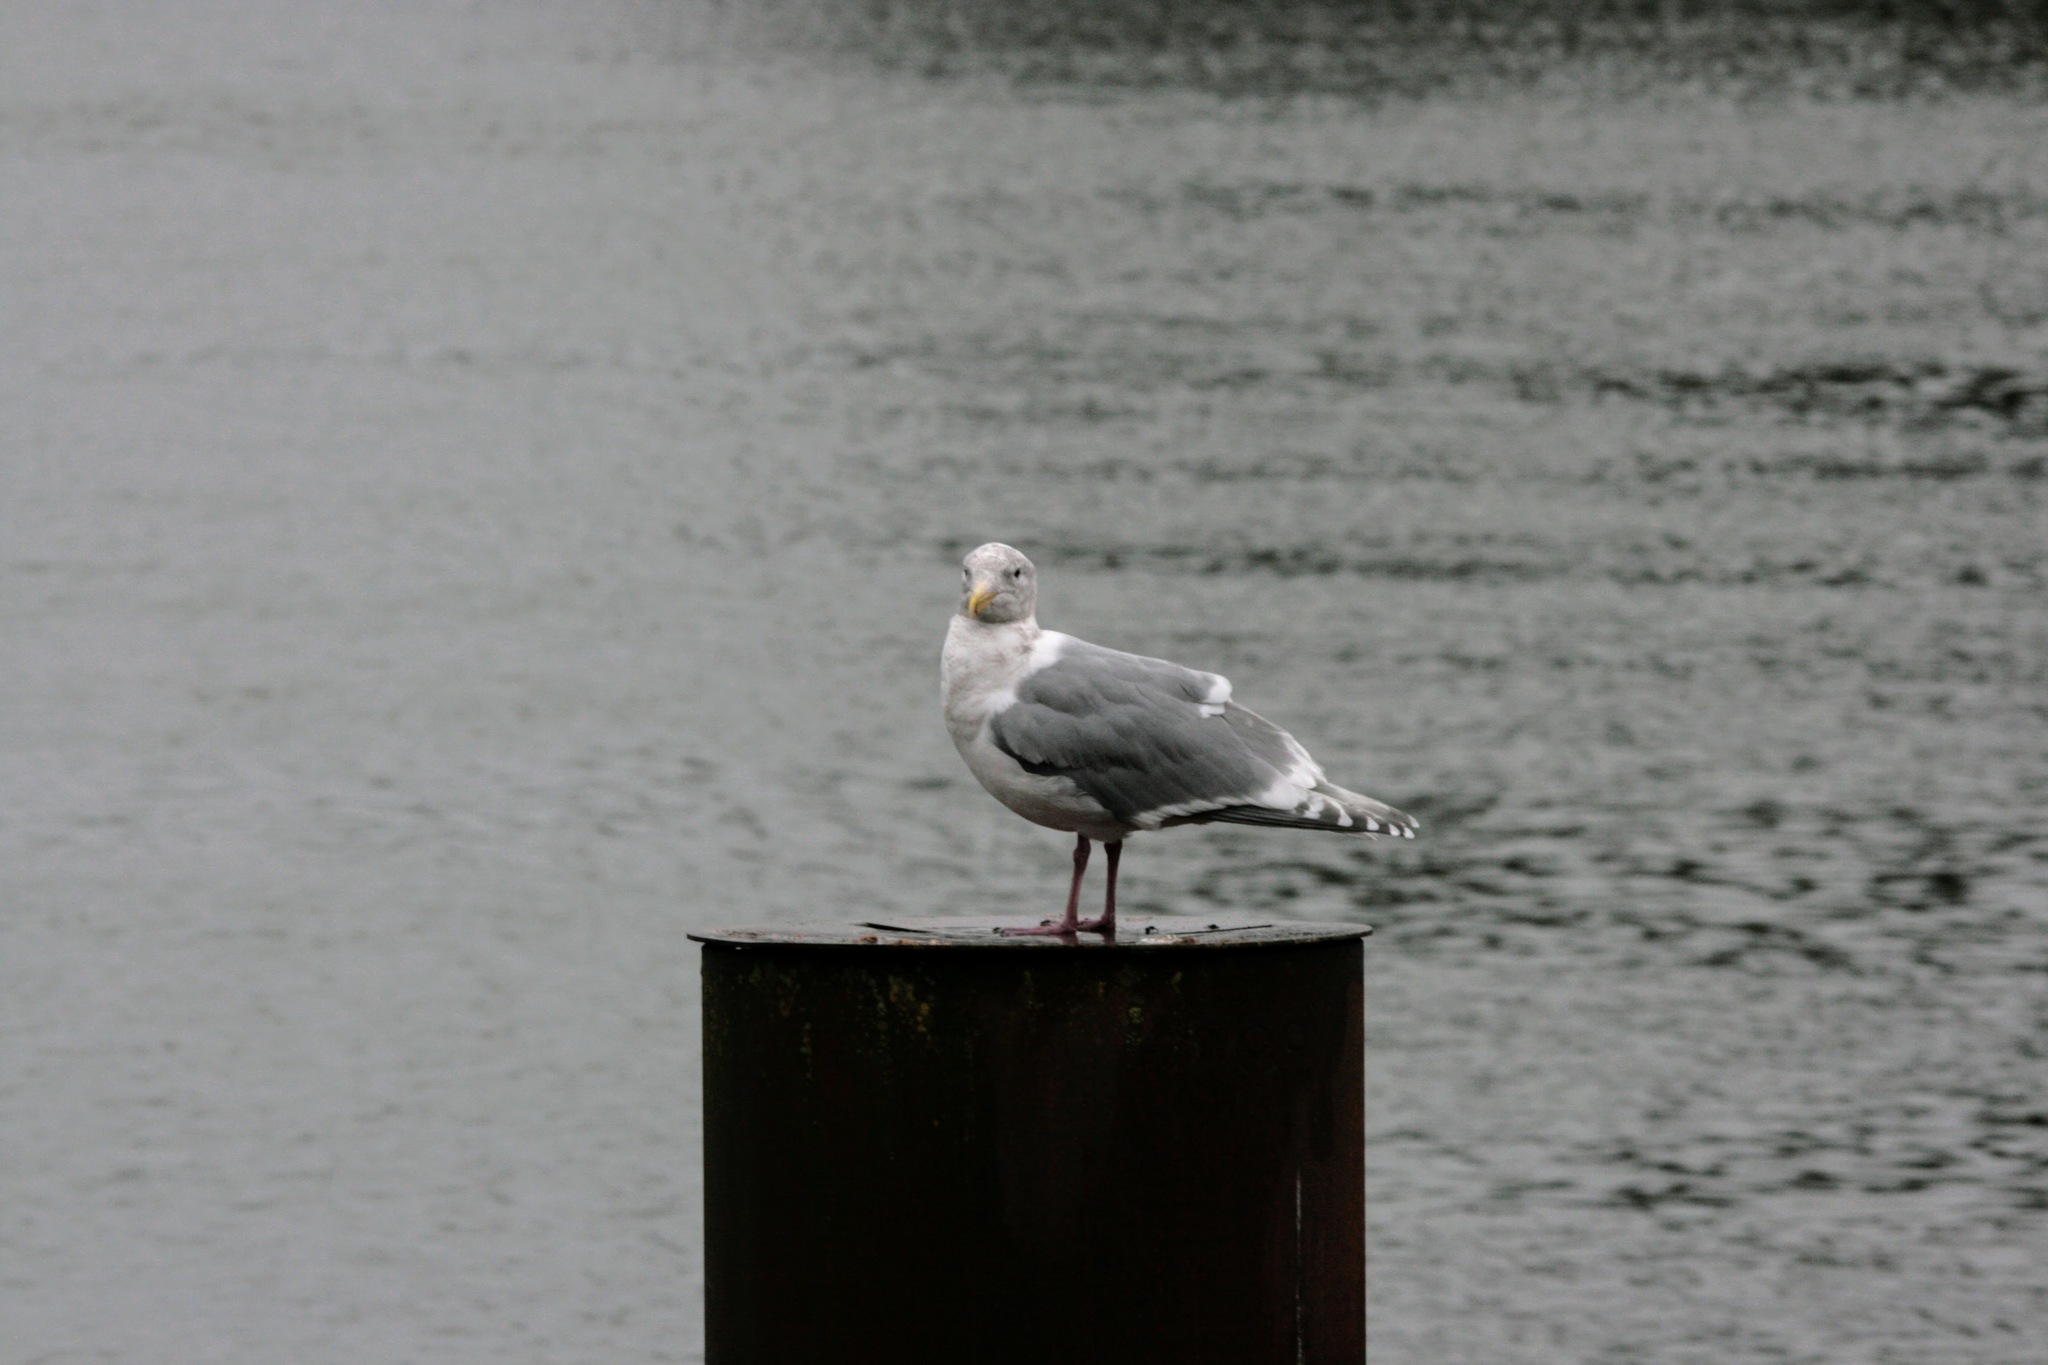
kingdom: Animalia
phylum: Chordata
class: Aves
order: Charadriiformes
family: Laridae
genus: Larus
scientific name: Larus
